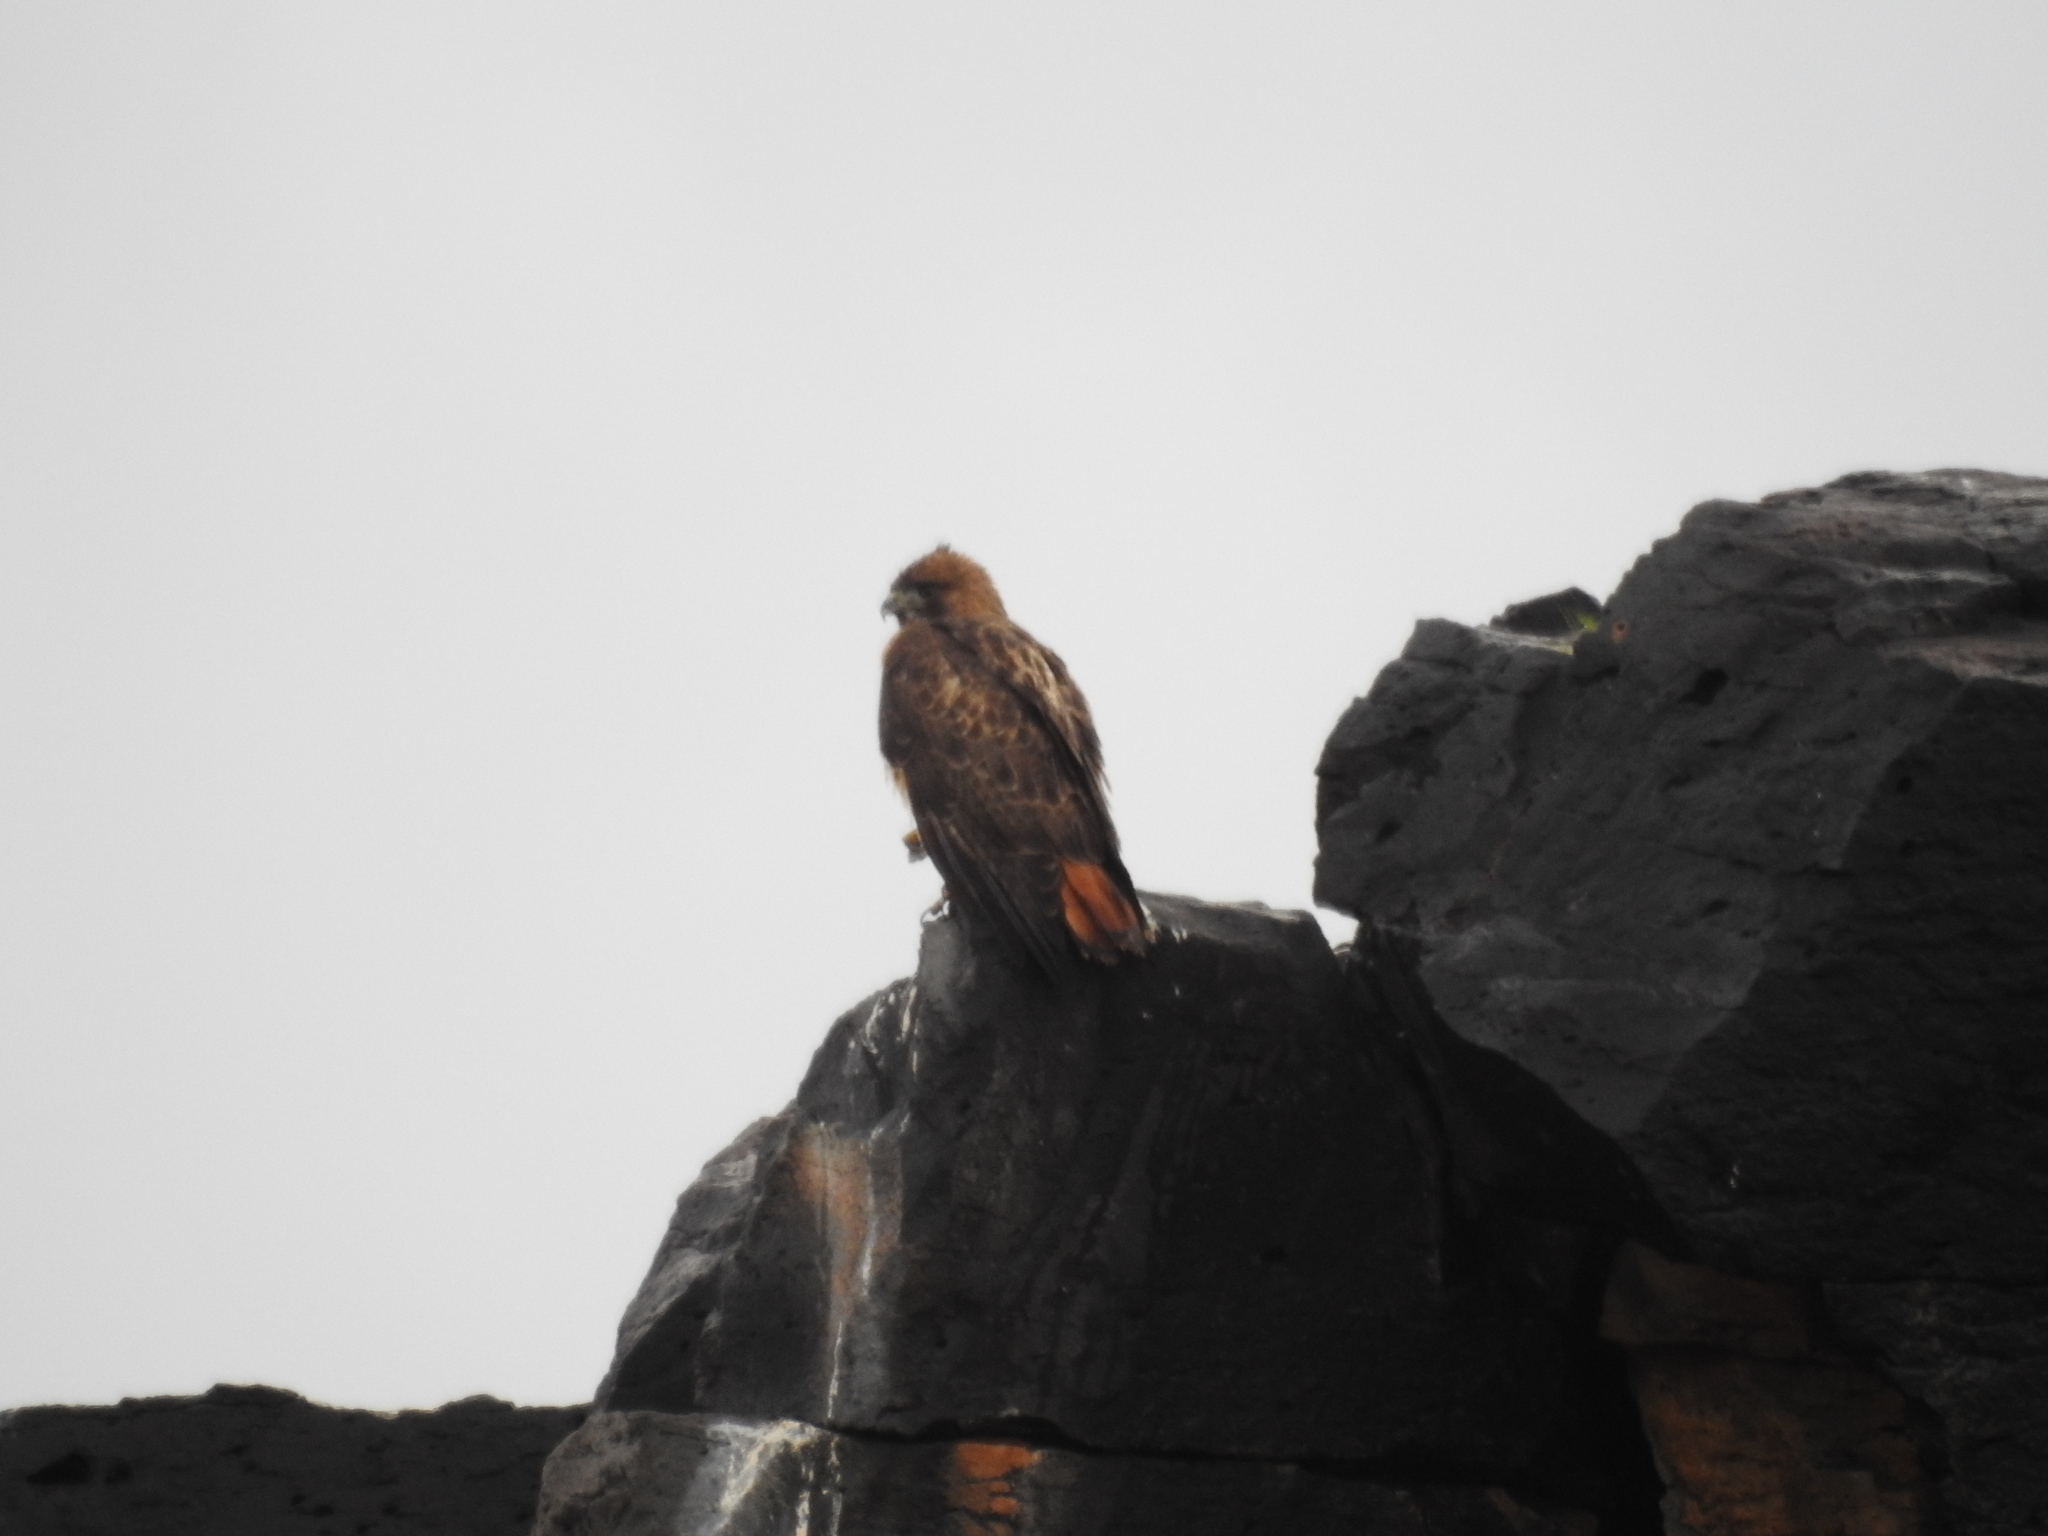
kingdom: Animalia
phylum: Chordata
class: Aves
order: Accipitriformes
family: Accipitridae
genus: Buteo
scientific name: Buteo jamaicensis
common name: Red-tailed hawk
